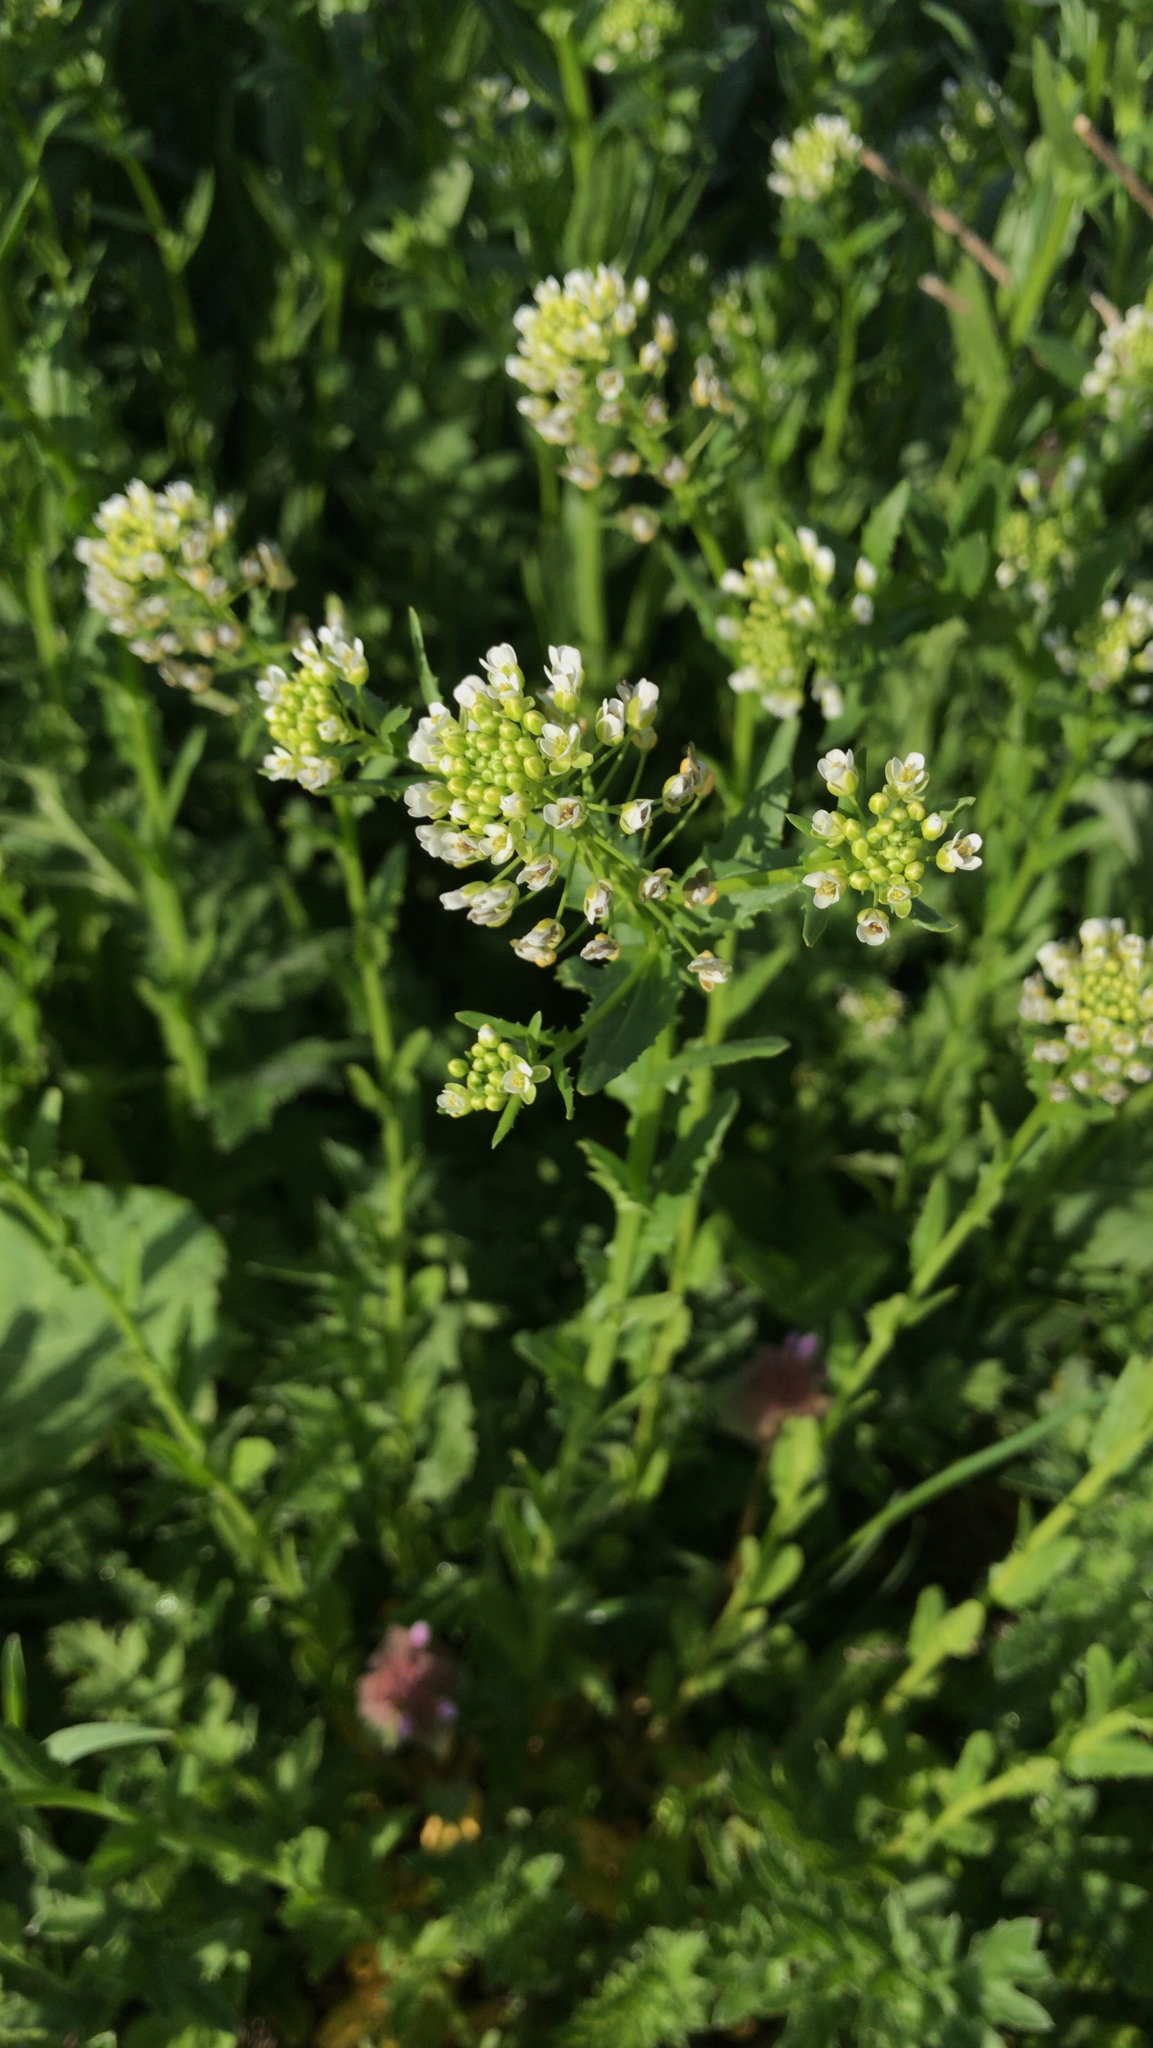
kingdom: Plantae
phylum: Tracheophyta
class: Magnoliopsida
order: Brassicales
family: Brassicaceae
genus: Thlaspi
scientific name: Thlaspi arvense
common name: Field pennycress
